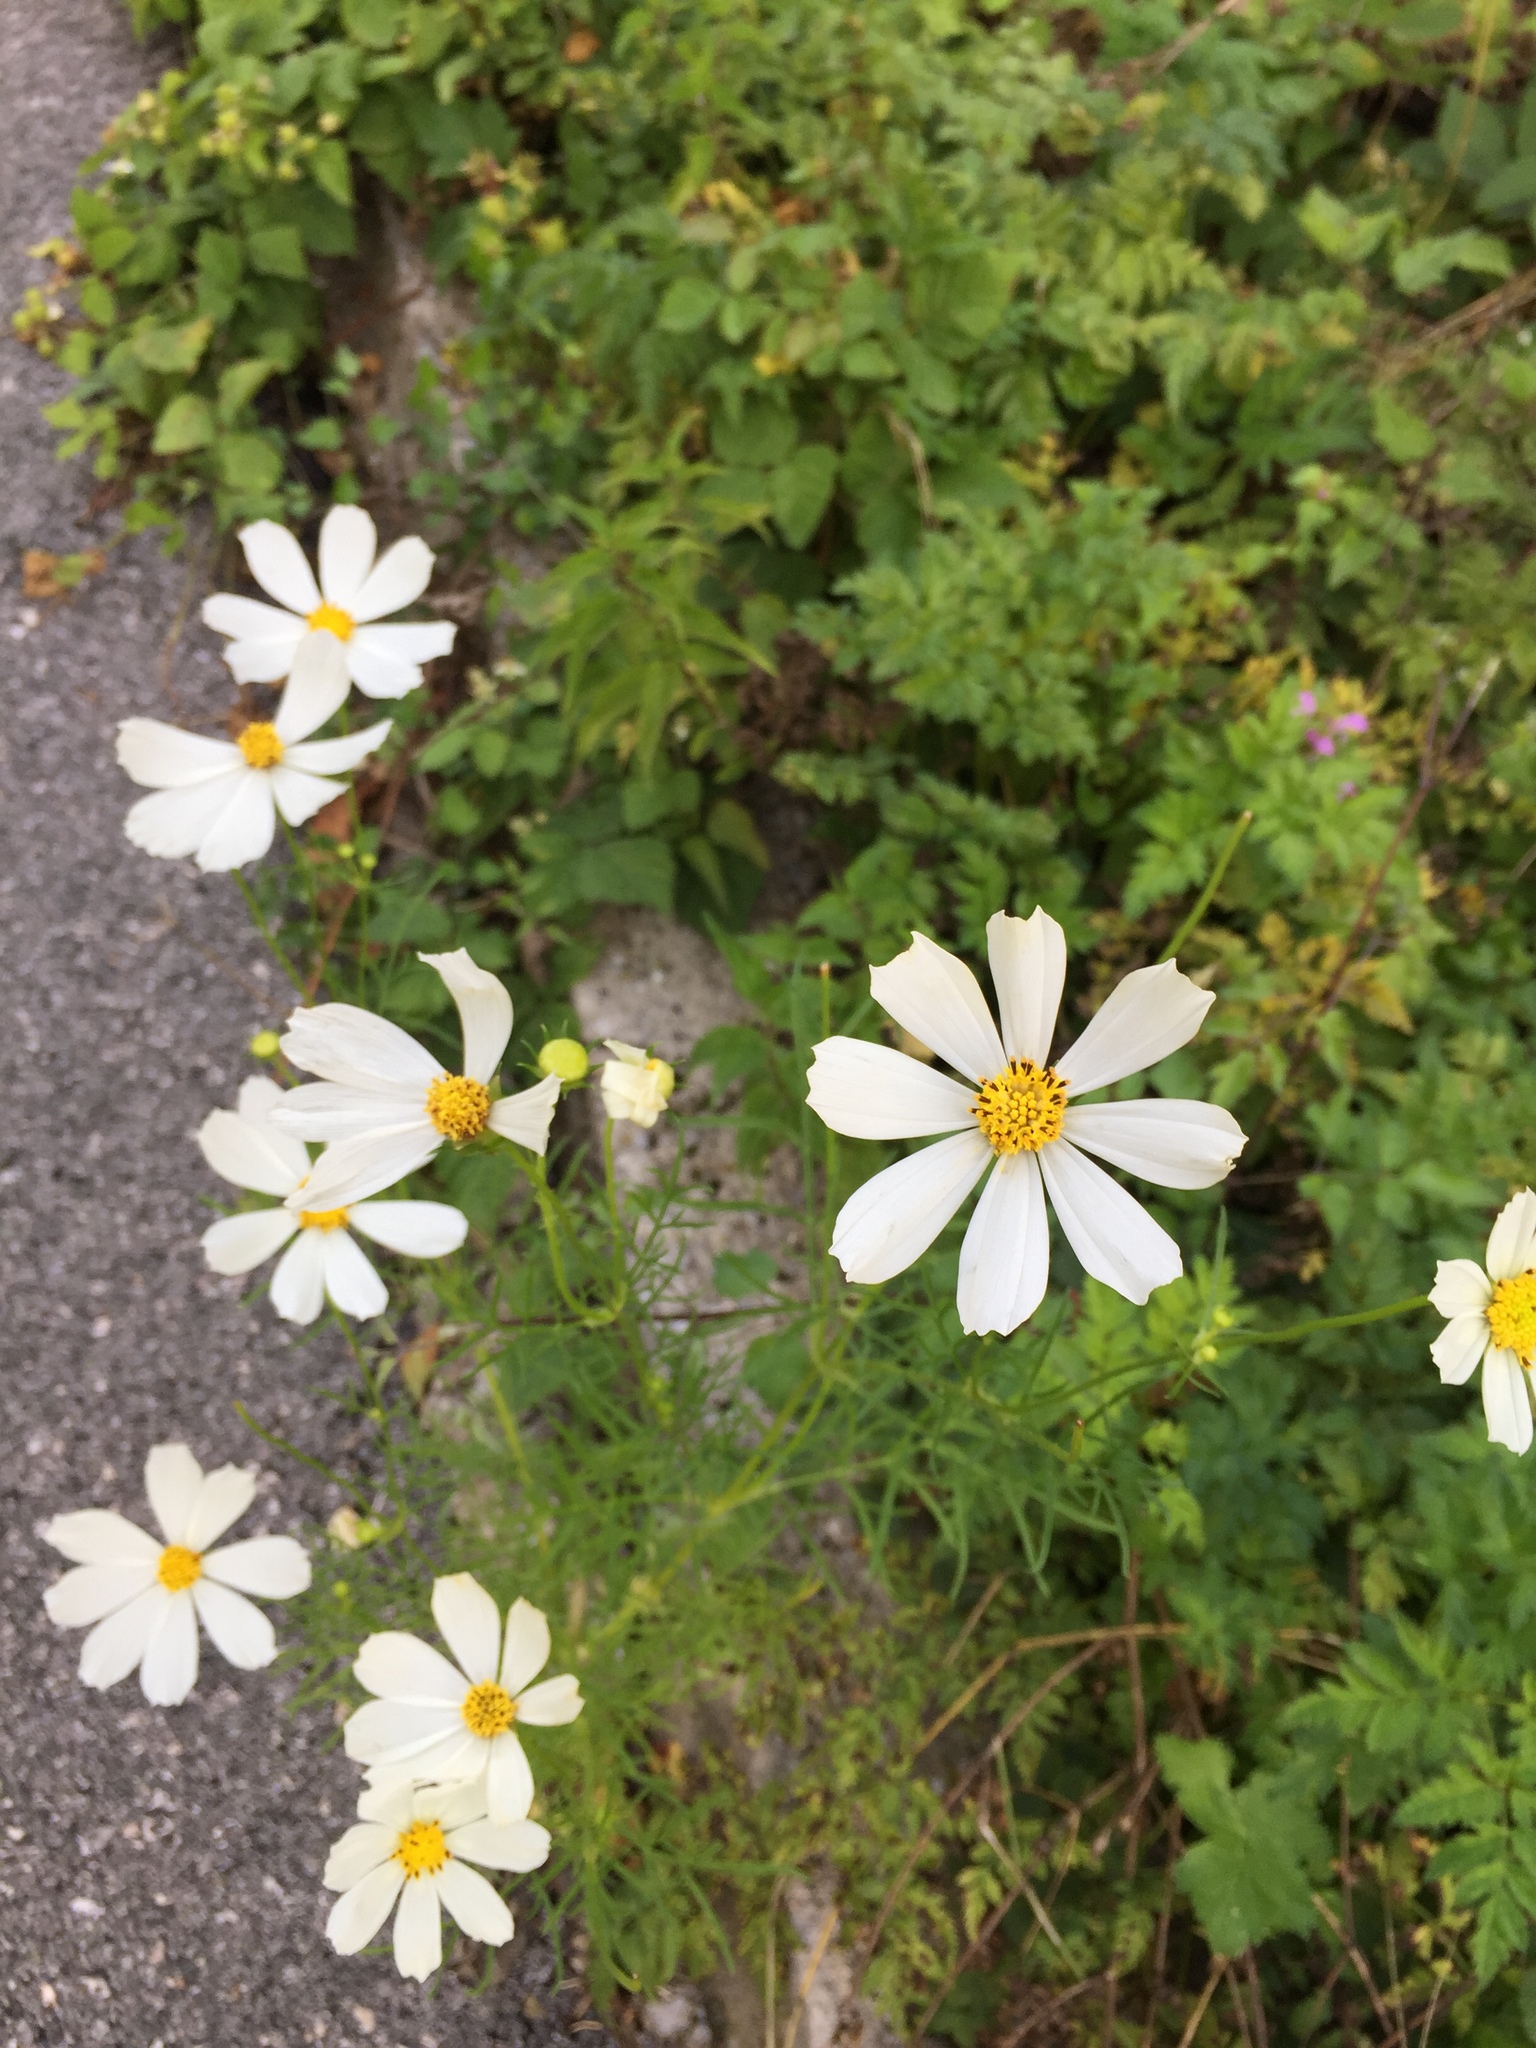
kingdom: Plantae
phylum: Tracheophyta
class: Magnoliopsida
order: Asterales
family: Asteraceae
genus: Cosmos
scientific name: Cosmos bipinnatus
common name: Garden cosmos
